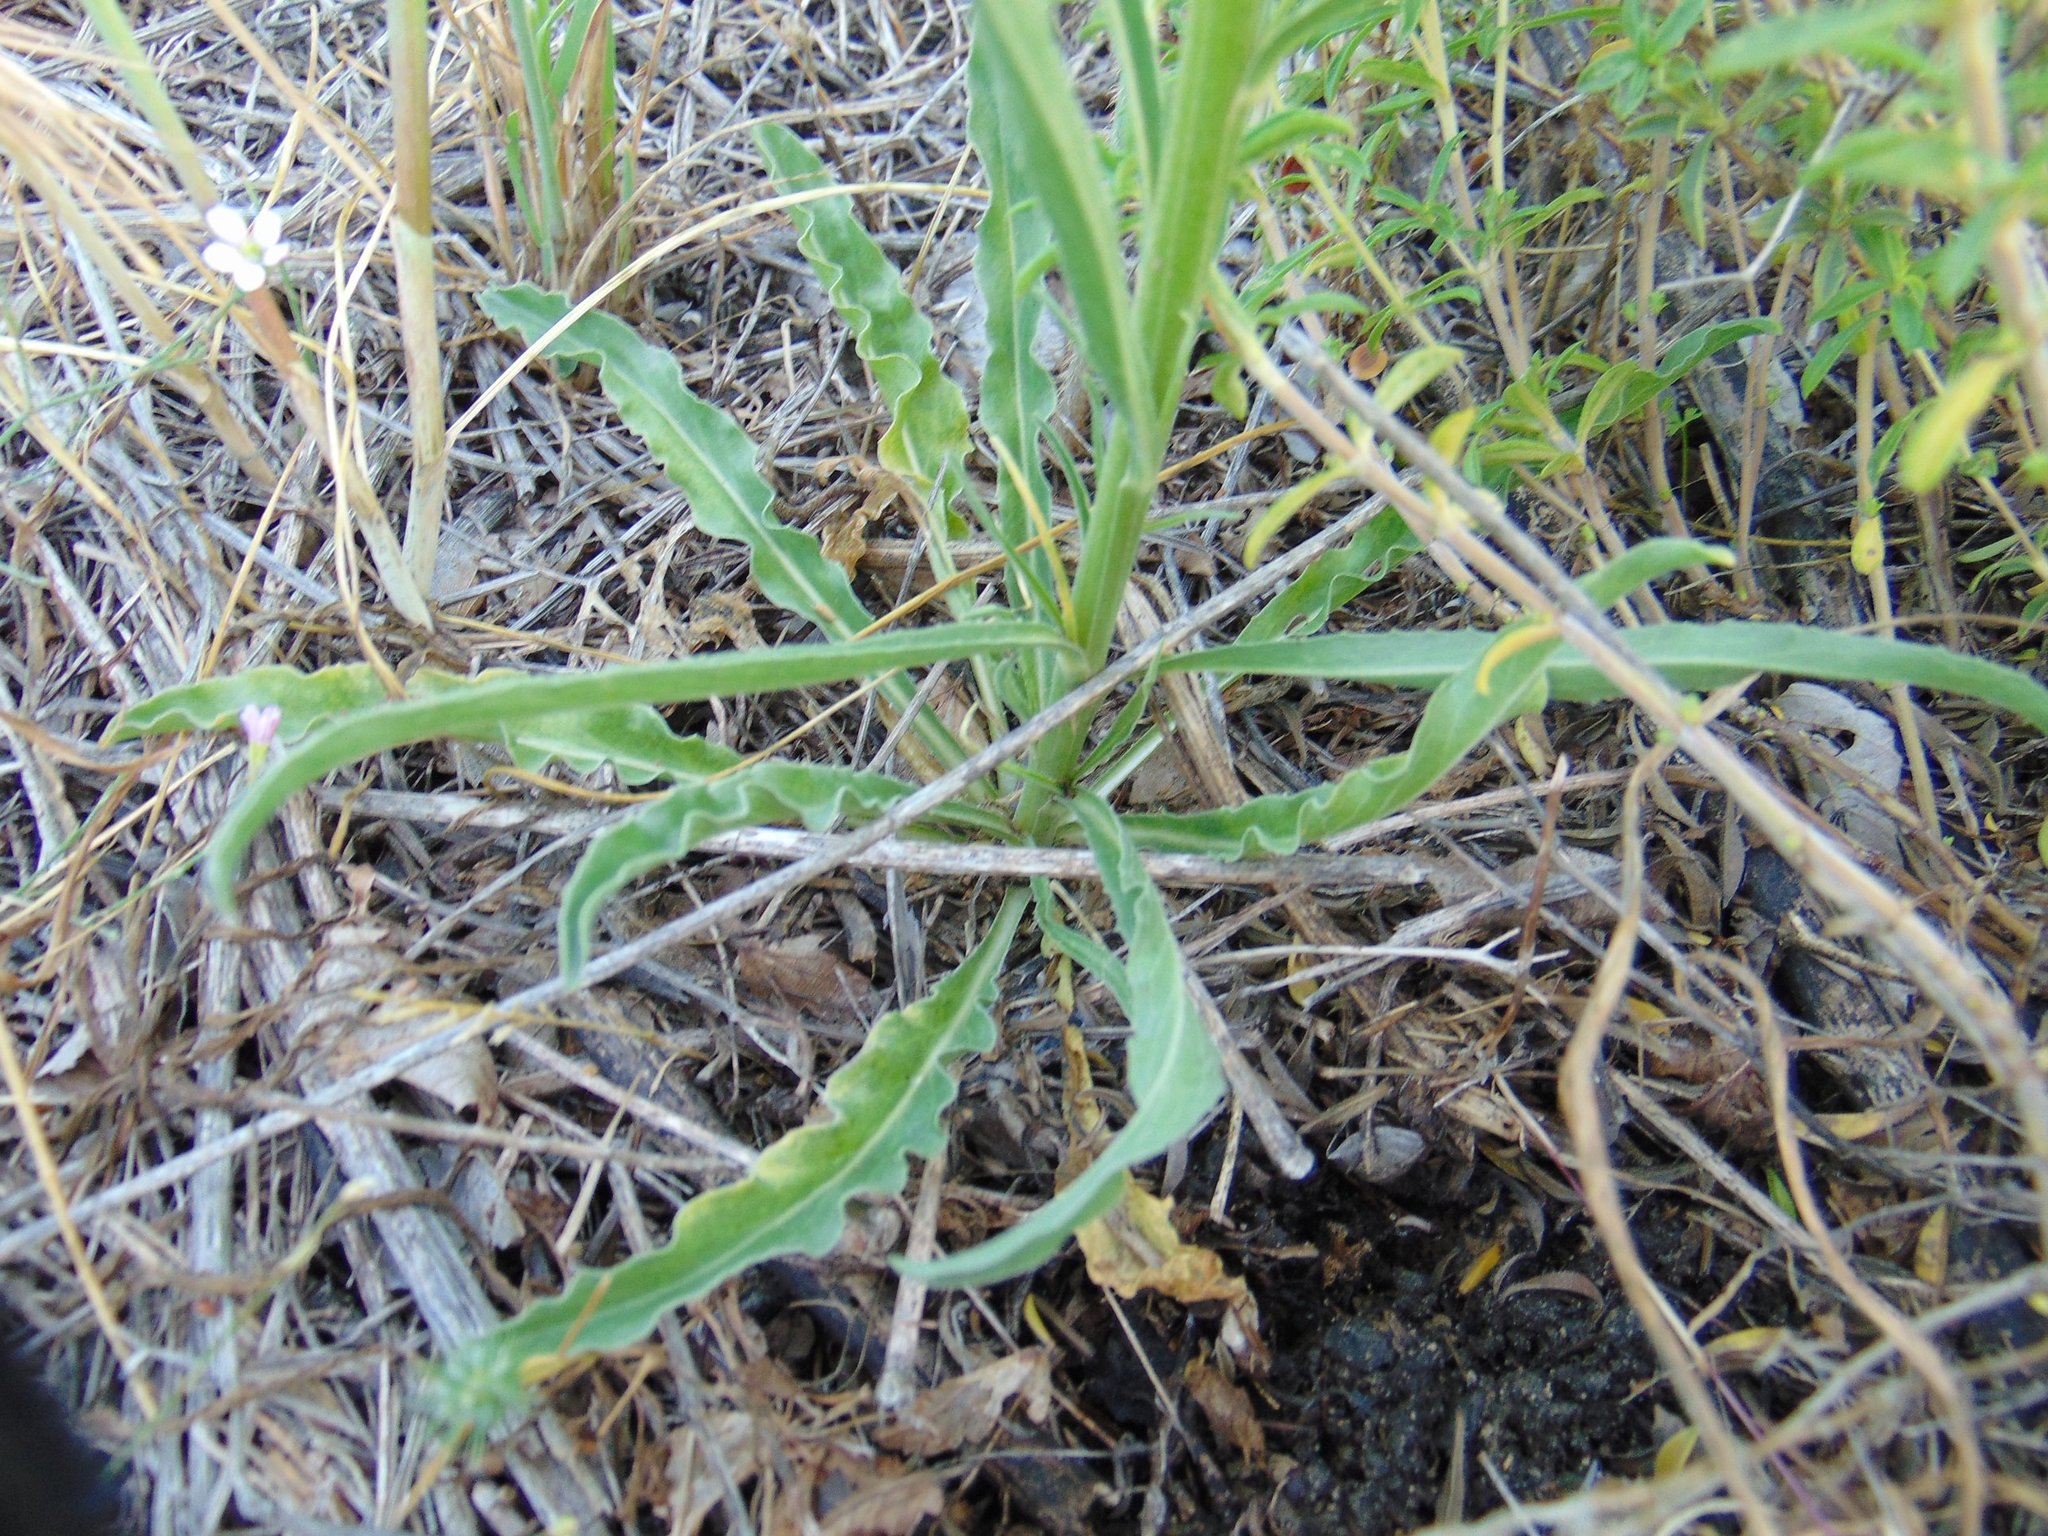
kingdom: Plantae
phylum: Tracheophyta
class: Magnoliopsida
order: Asterales
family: Campanulaceae
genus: Asyneuma
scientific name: Asyneuma limonifolium
